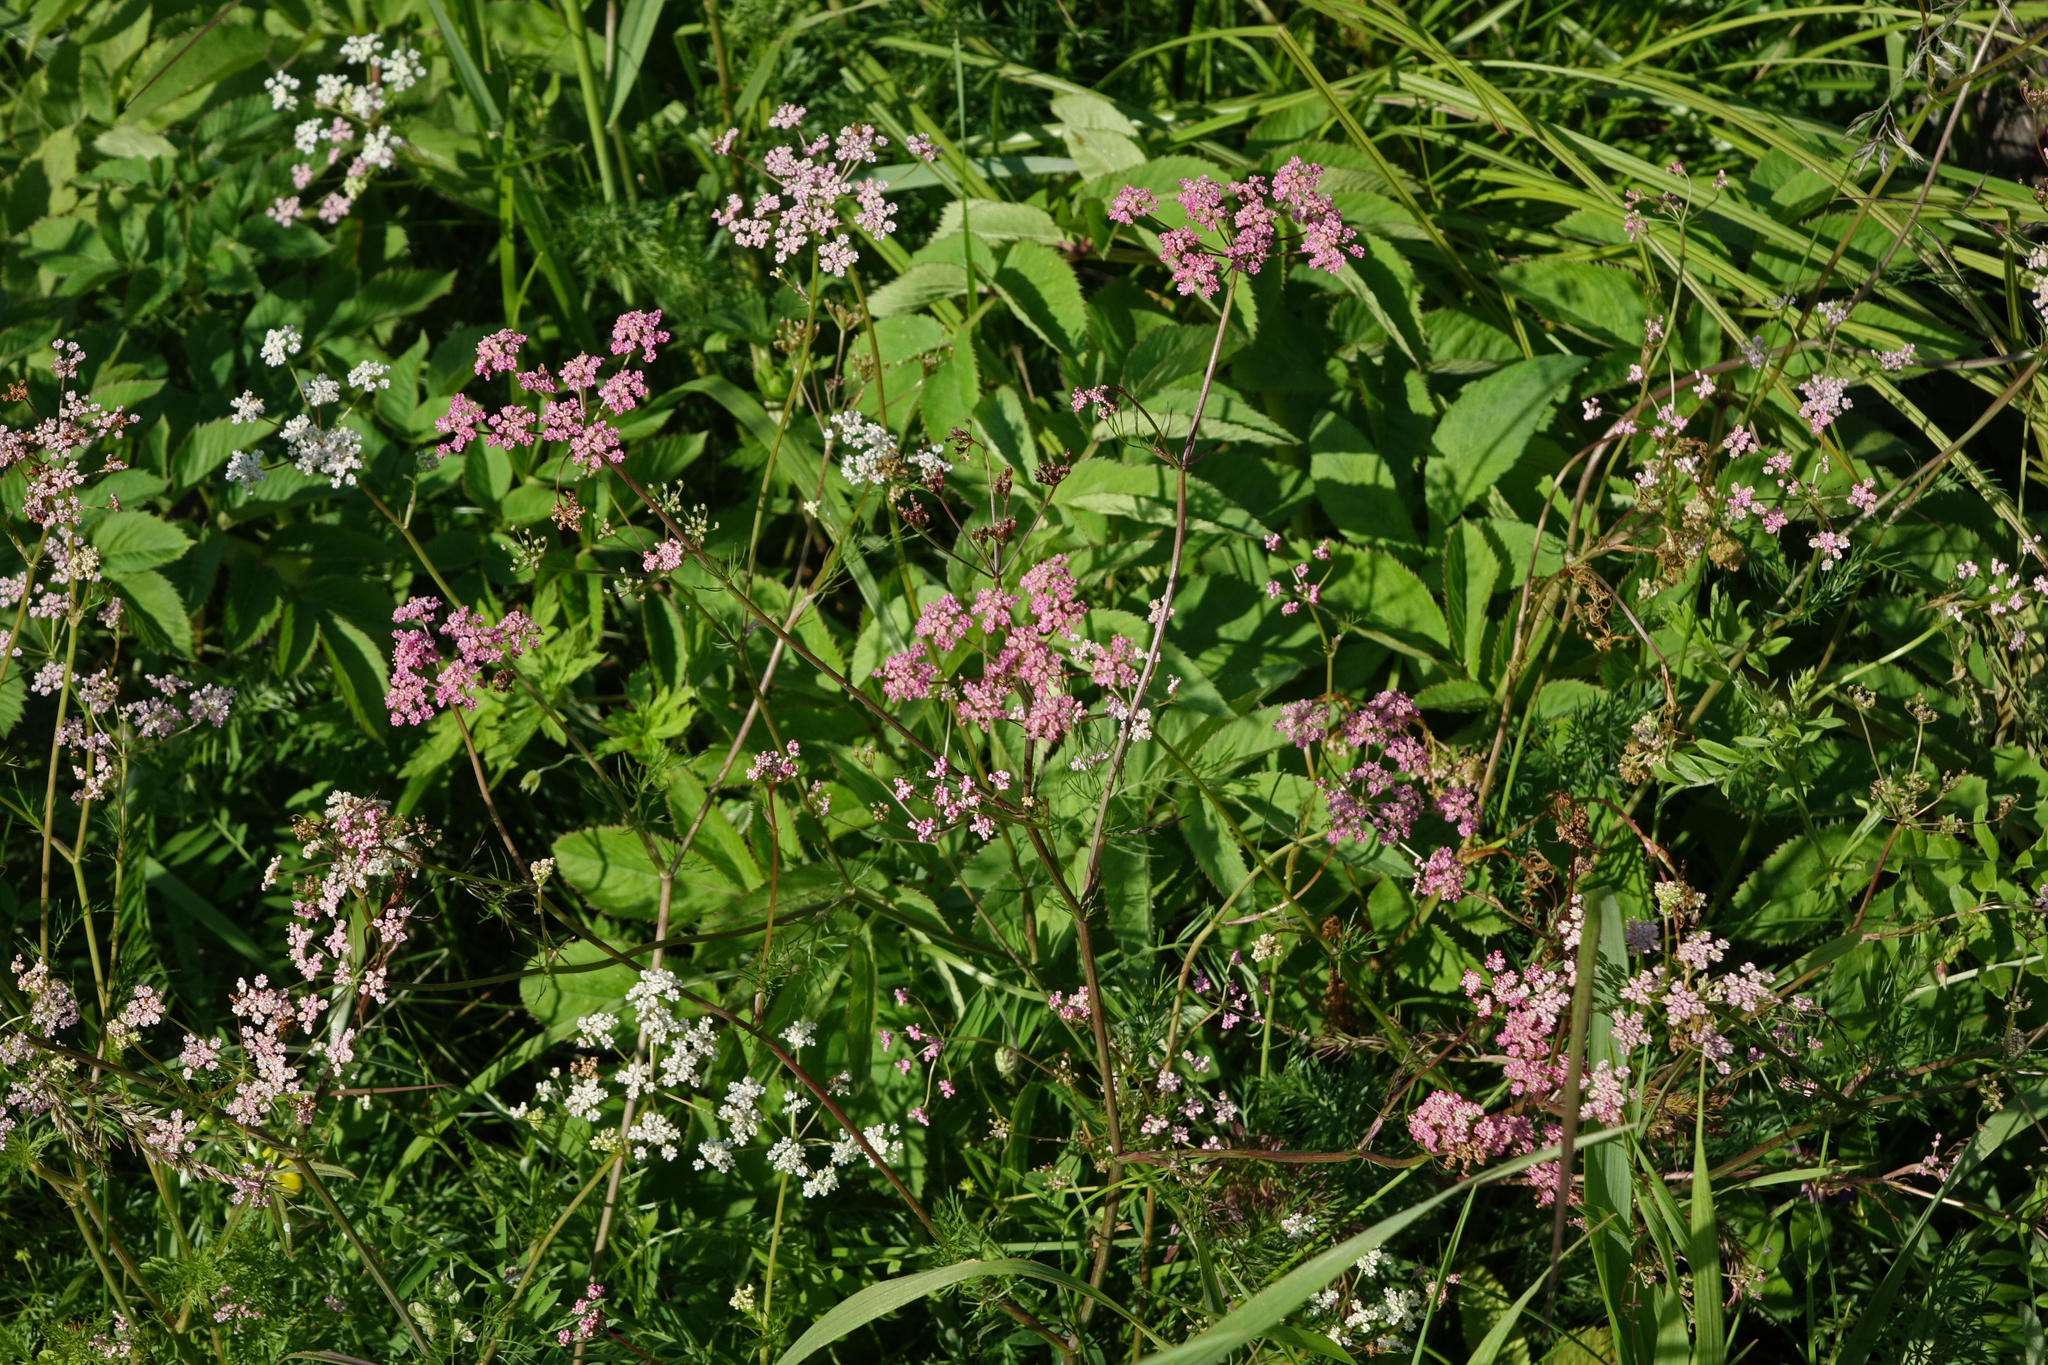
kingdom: Plantae
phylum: Tracheophyta
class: Magnoliopsida
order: Apiales
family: Apiaceae
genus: Carum
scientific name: Carum carvi
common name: Caraway
